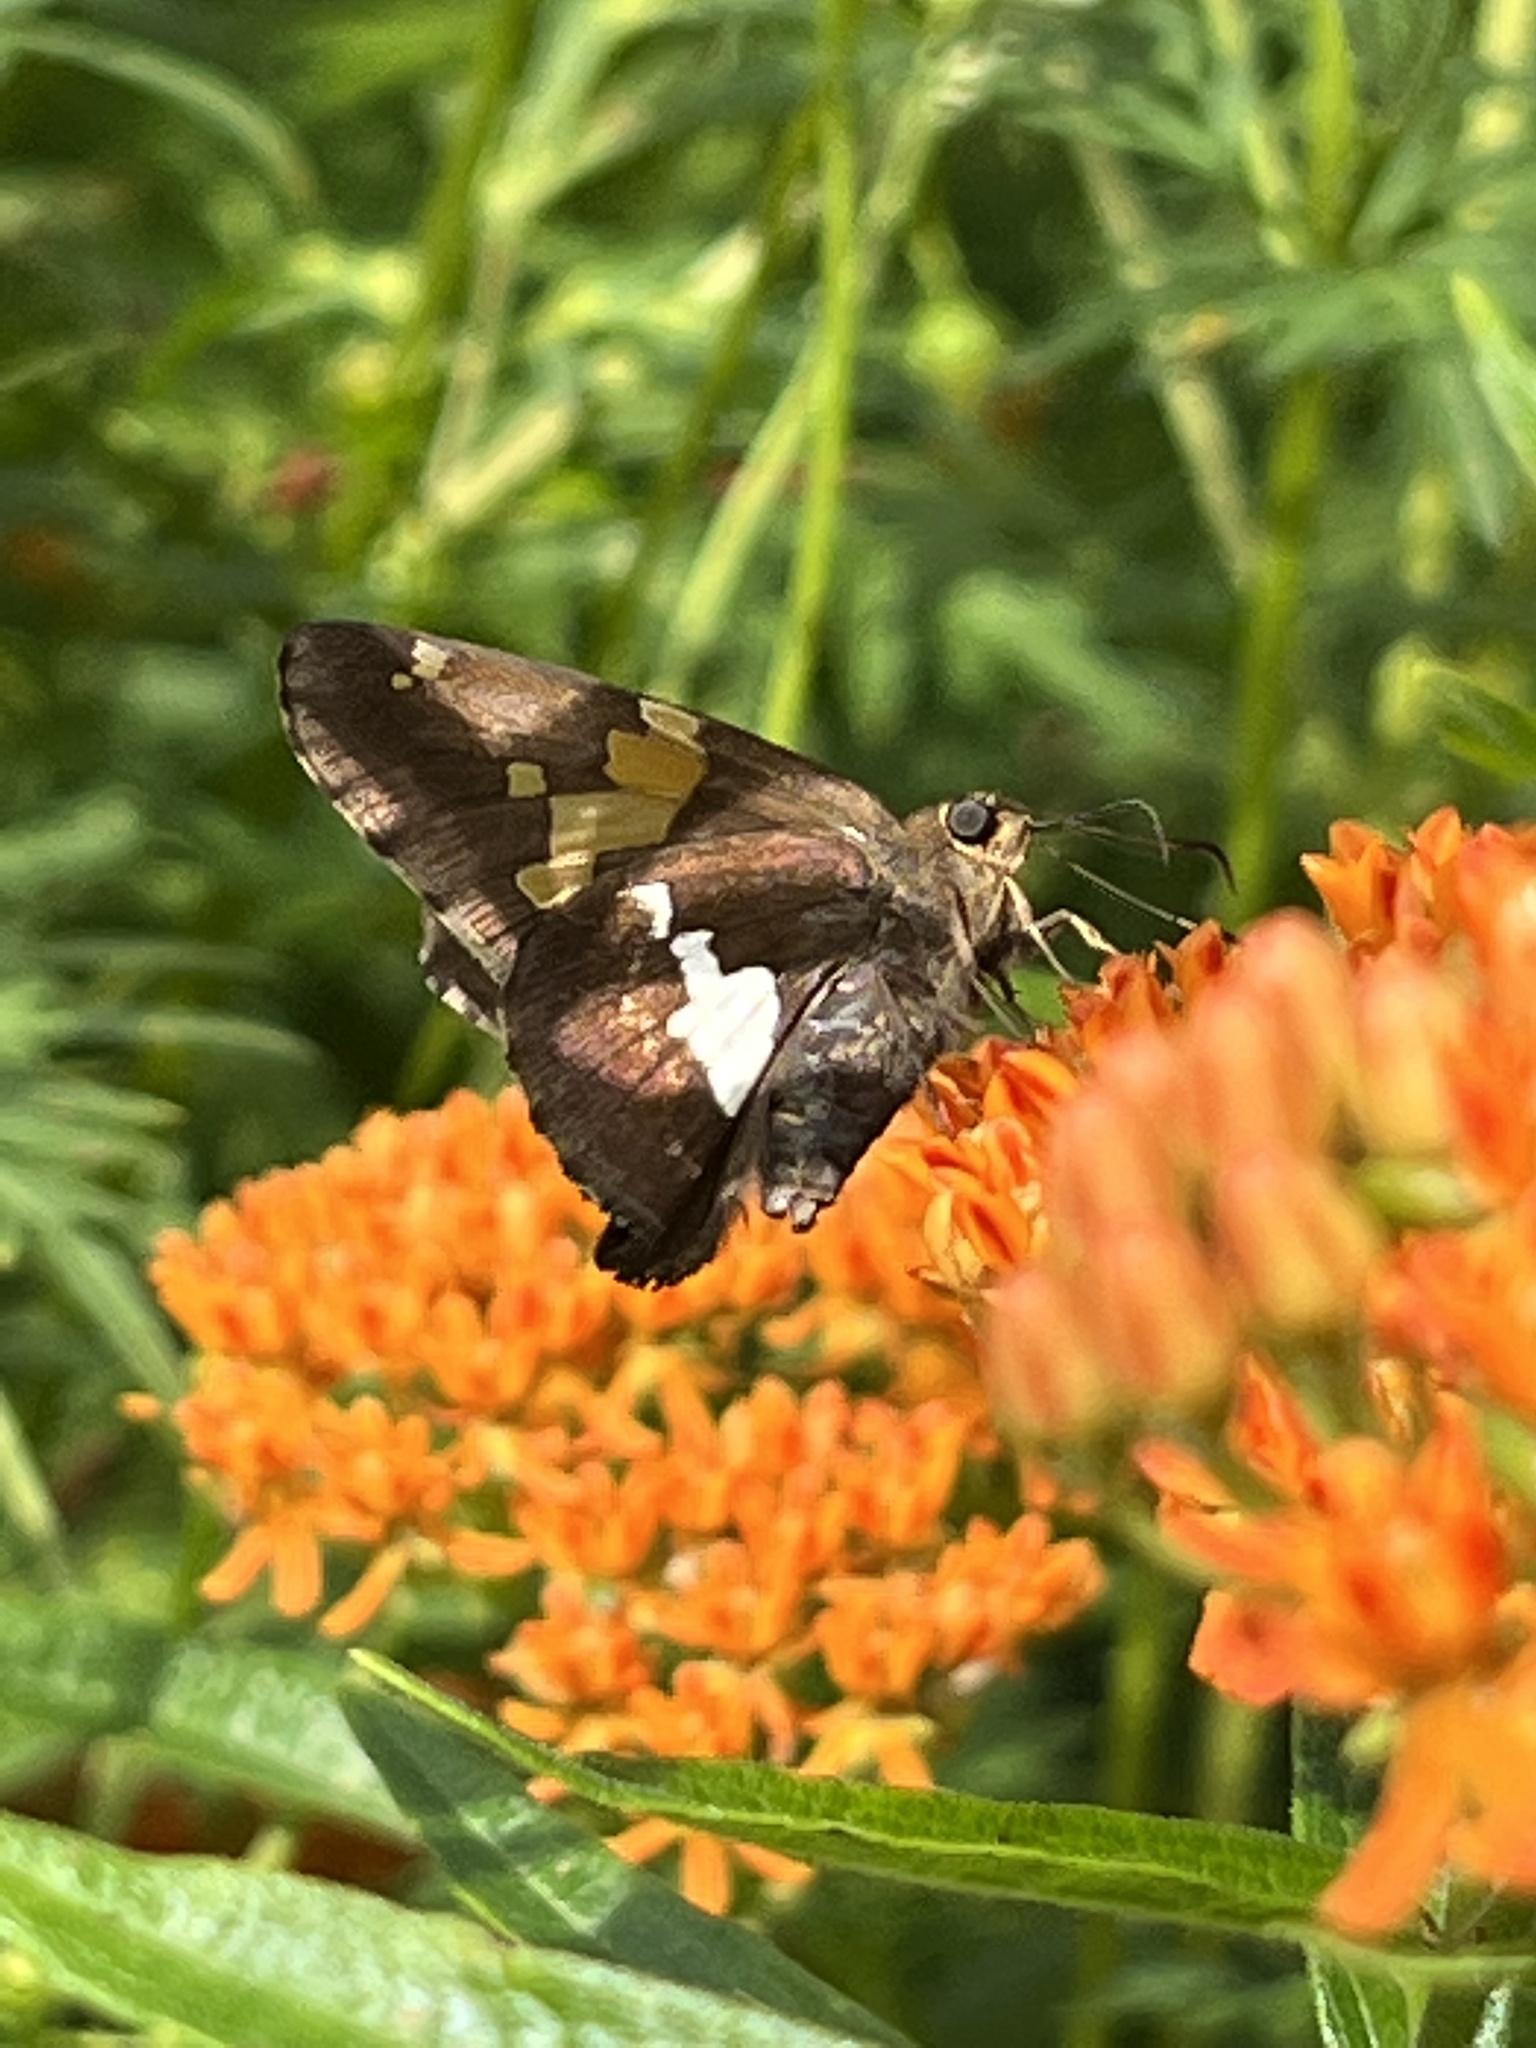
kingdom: Animalia
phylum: Arthropoda
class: Insecta
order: Lepidoptera
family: Hesperiidae
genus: Epargyreus
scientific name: Epargyreus clarus
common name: Silver-spotted skipper
